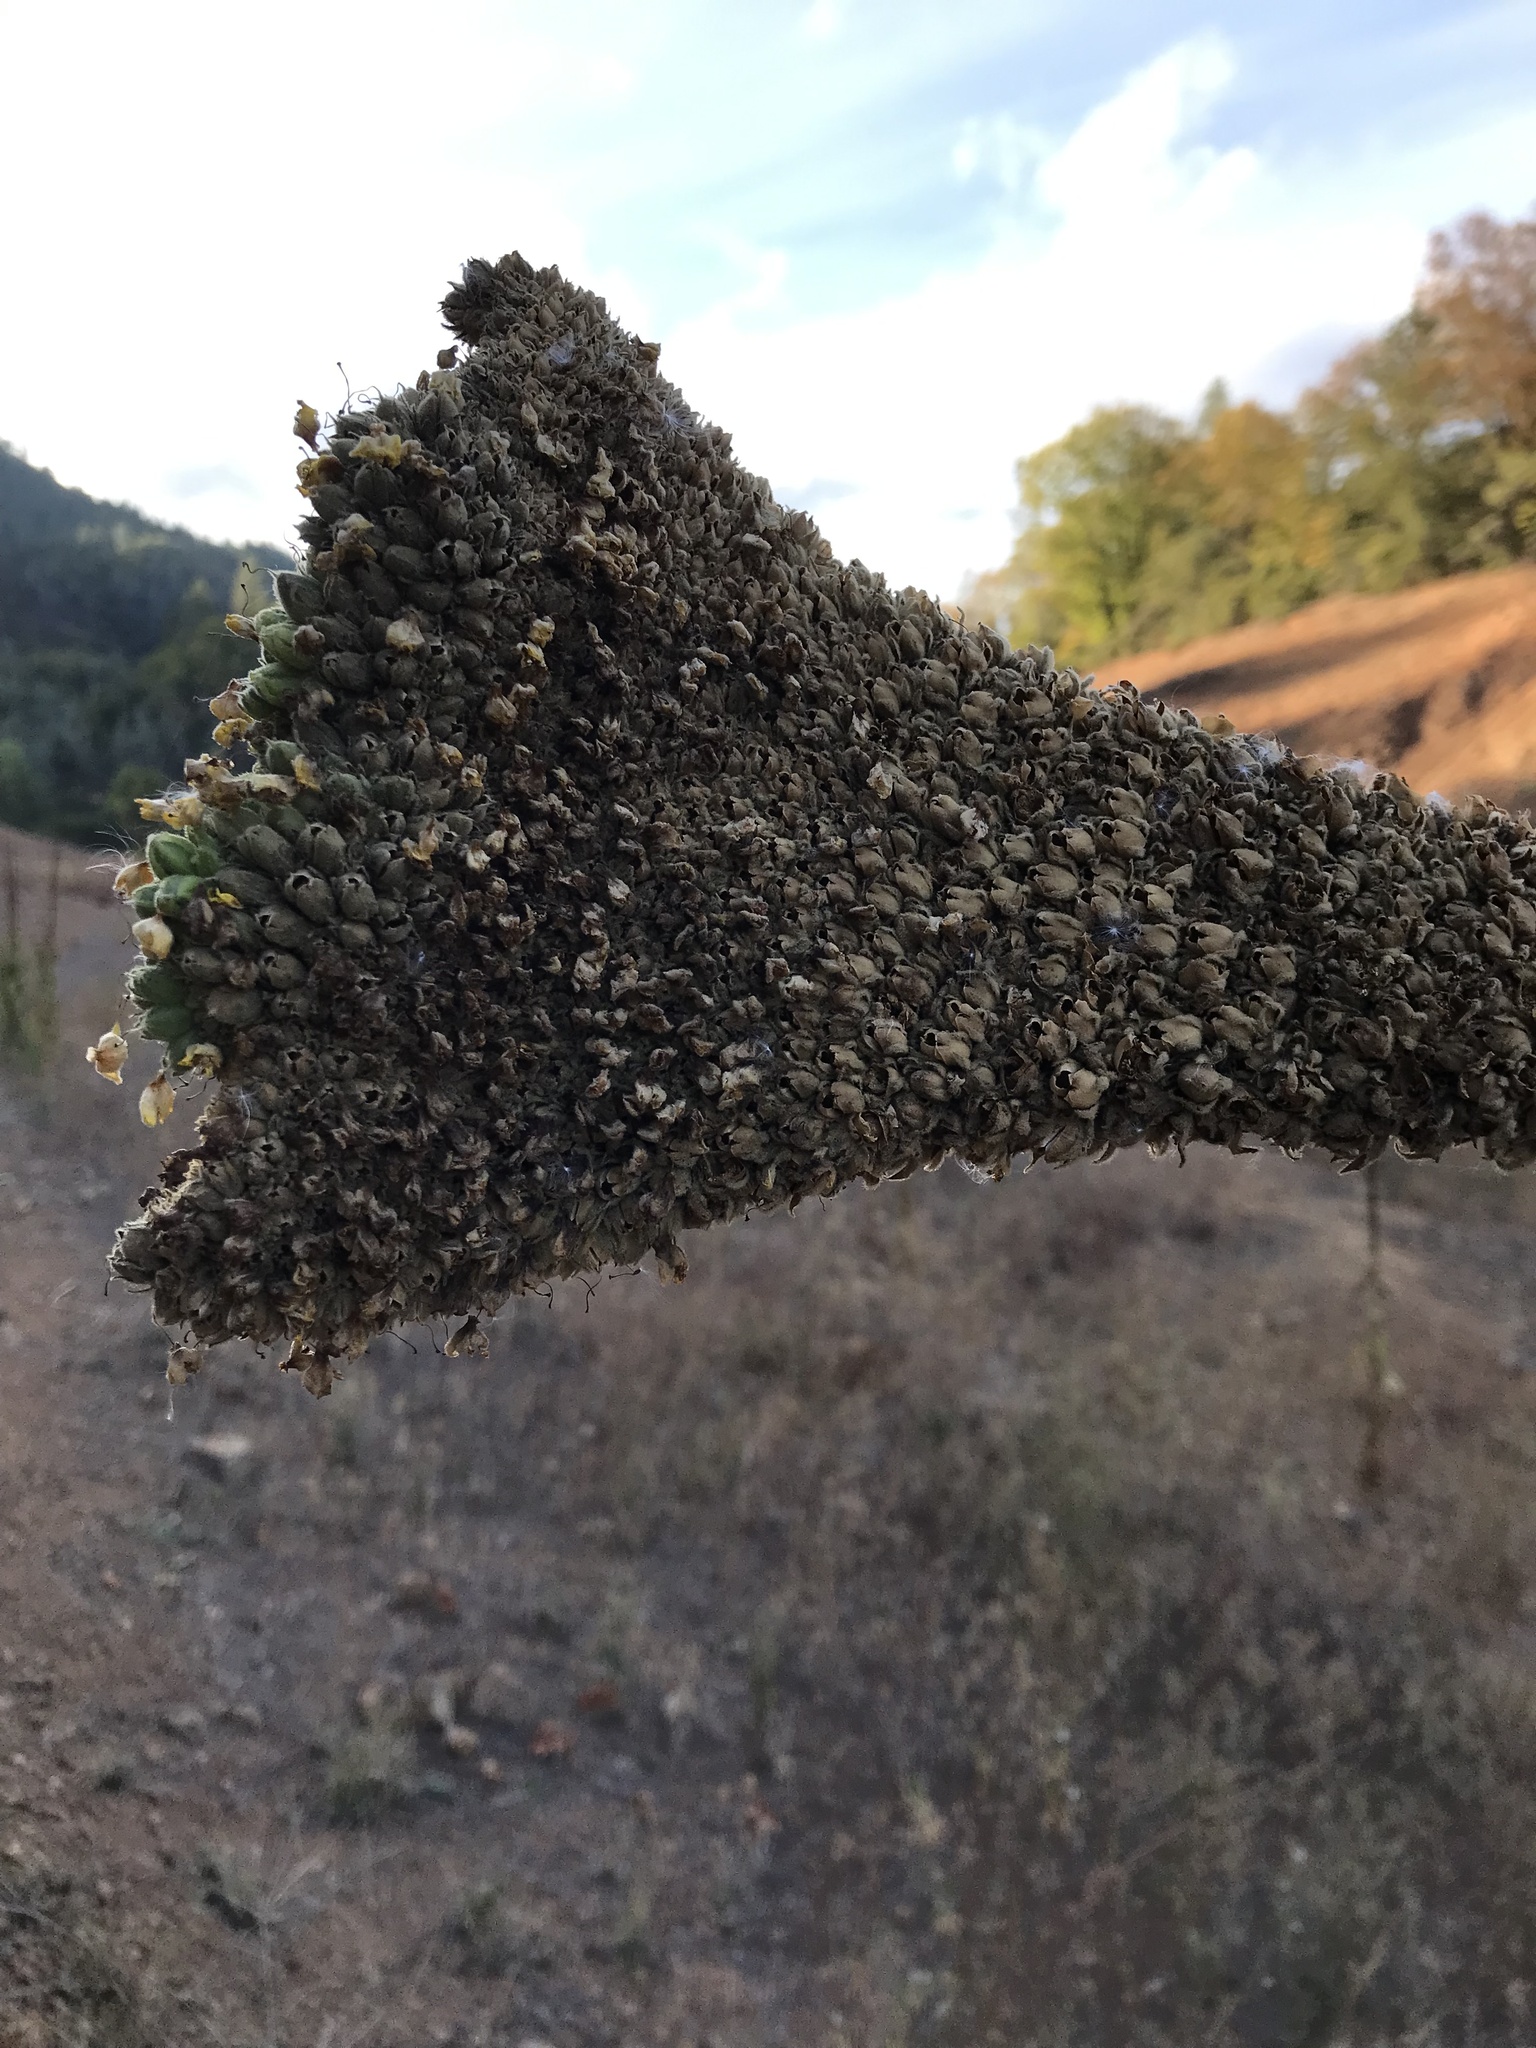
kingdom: Plantae
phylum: Tracheophyta
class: Magnoliopsida
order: Lamiales
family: Scrophulariaceae
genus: Verbascum
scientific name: Verbascum thapsus
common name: Common mullein
